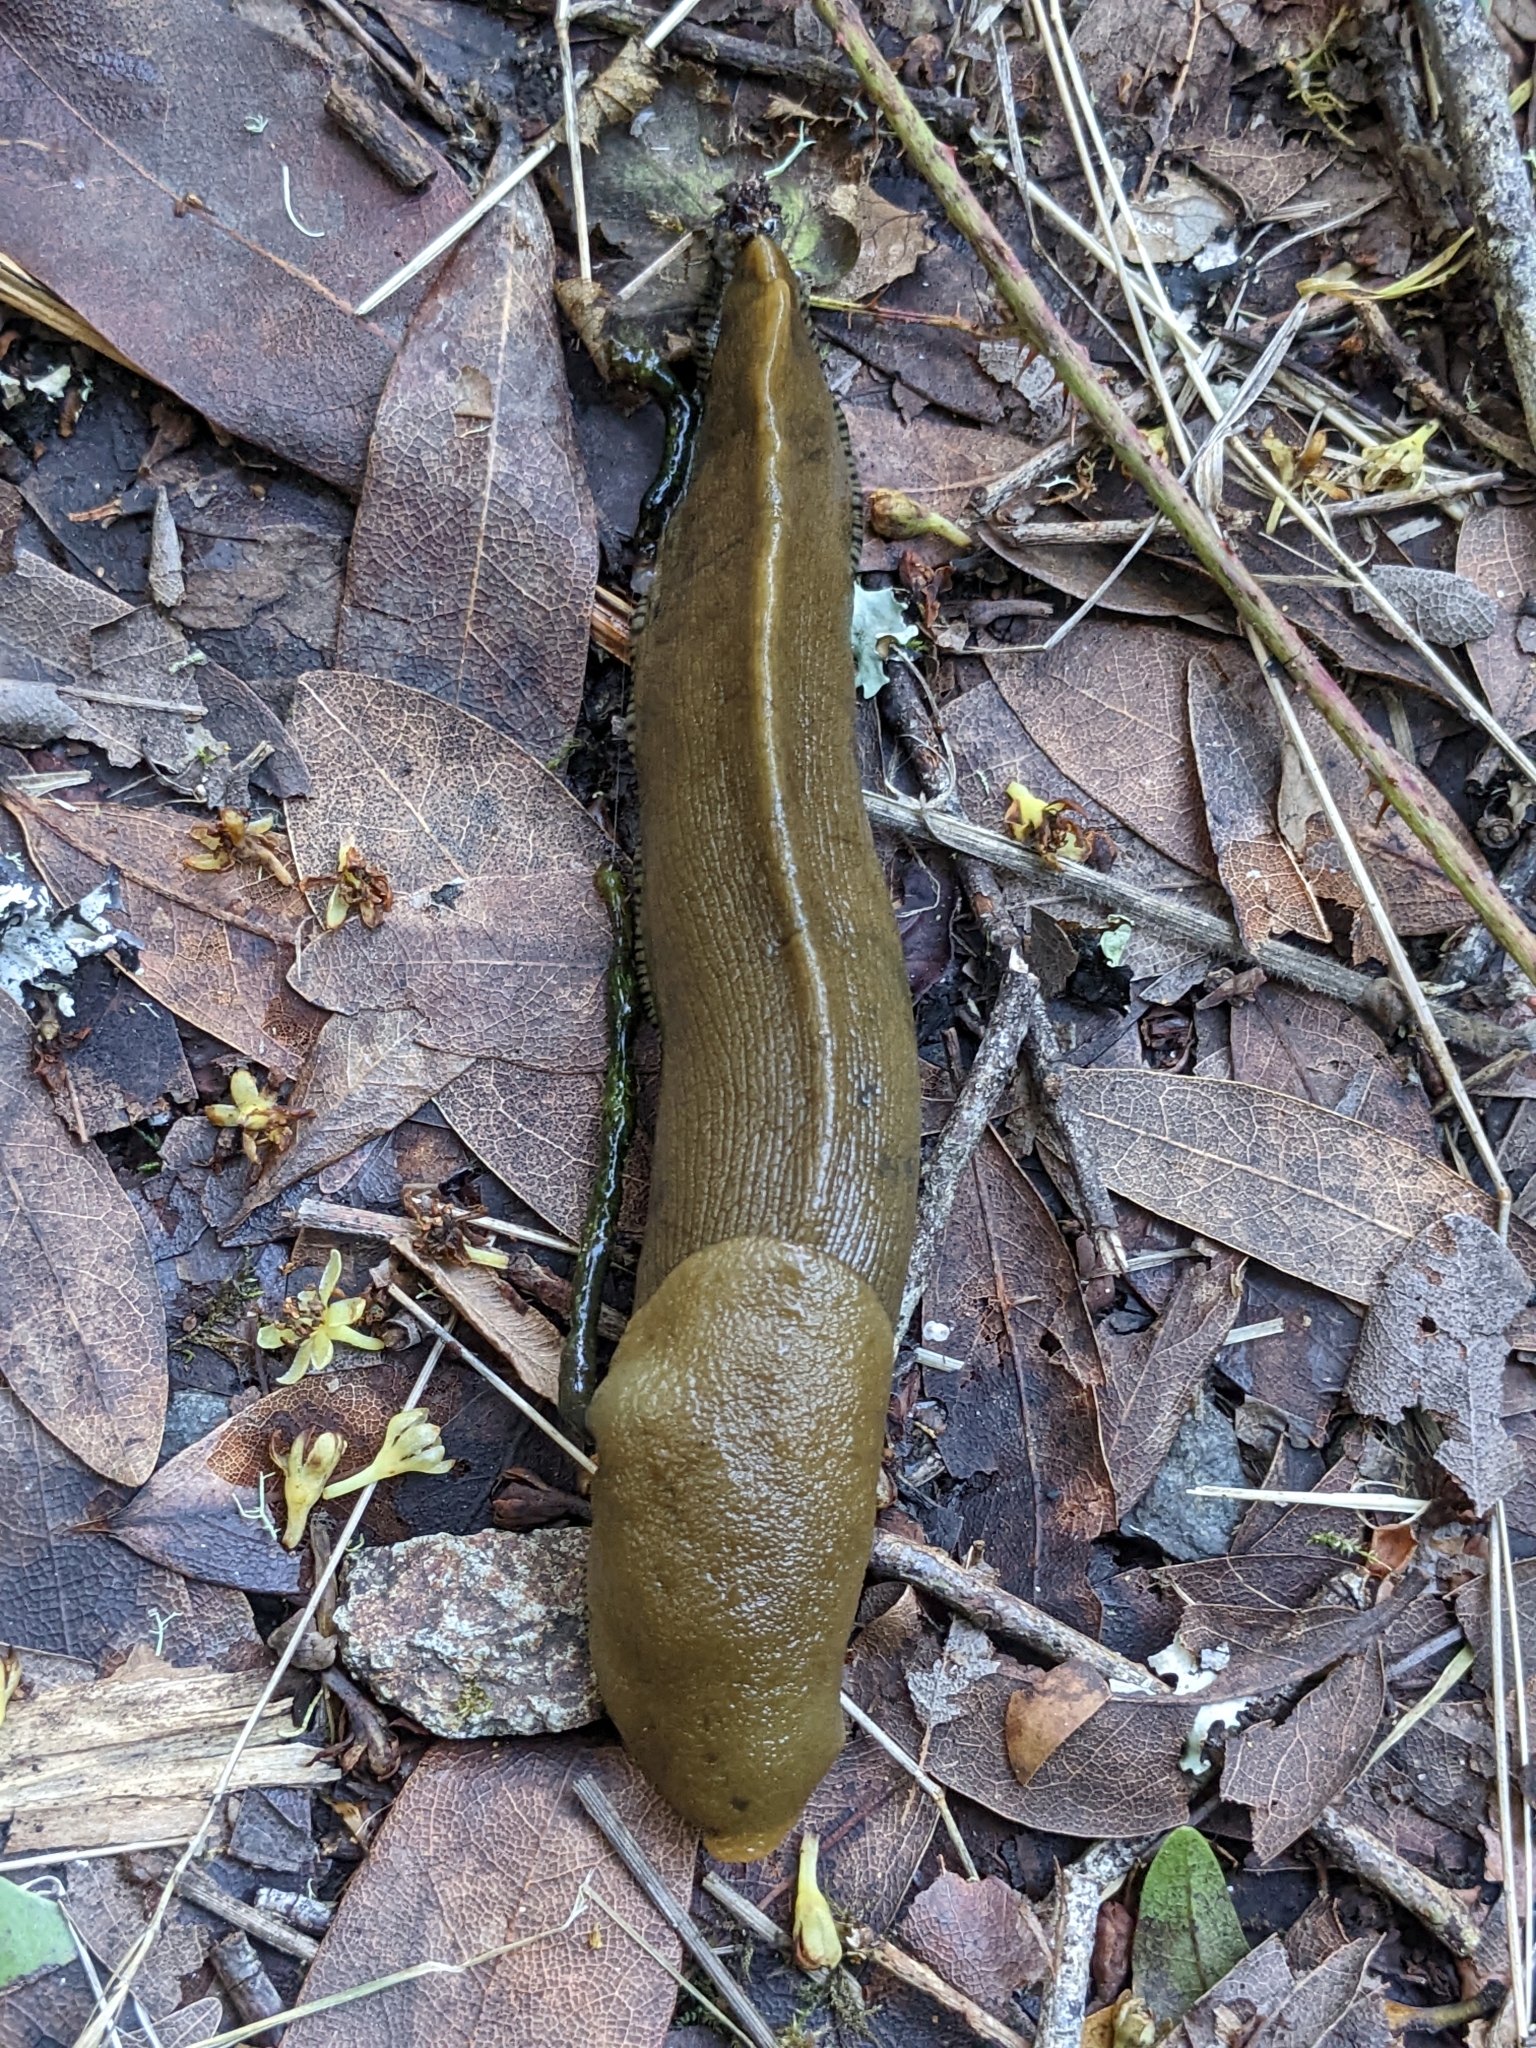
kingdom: Animalia
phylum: Mollusca
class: Gastropoda
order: Stylommatophora
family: Ariolimacidae
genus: Ariolimax
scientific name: Ariolimax buttoni
